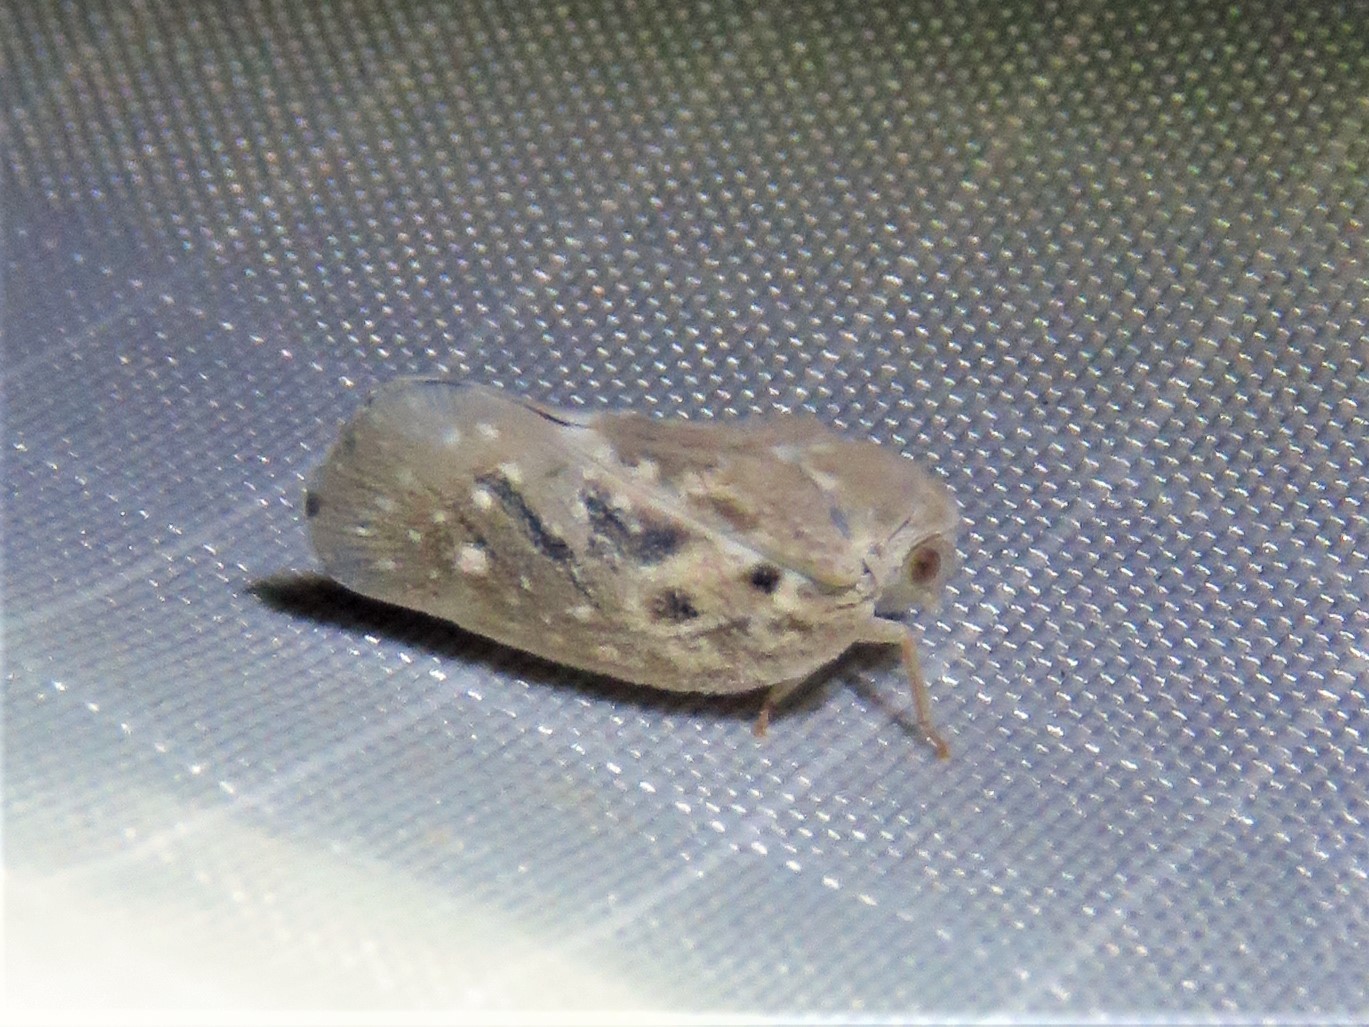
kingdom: Animalia
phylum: Arthropoda
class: Insecta
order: Hemiptera
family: Flatidae
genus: Metcalfa
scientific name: Metcalfa pruinosa
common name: Citrus flatid planthopper
